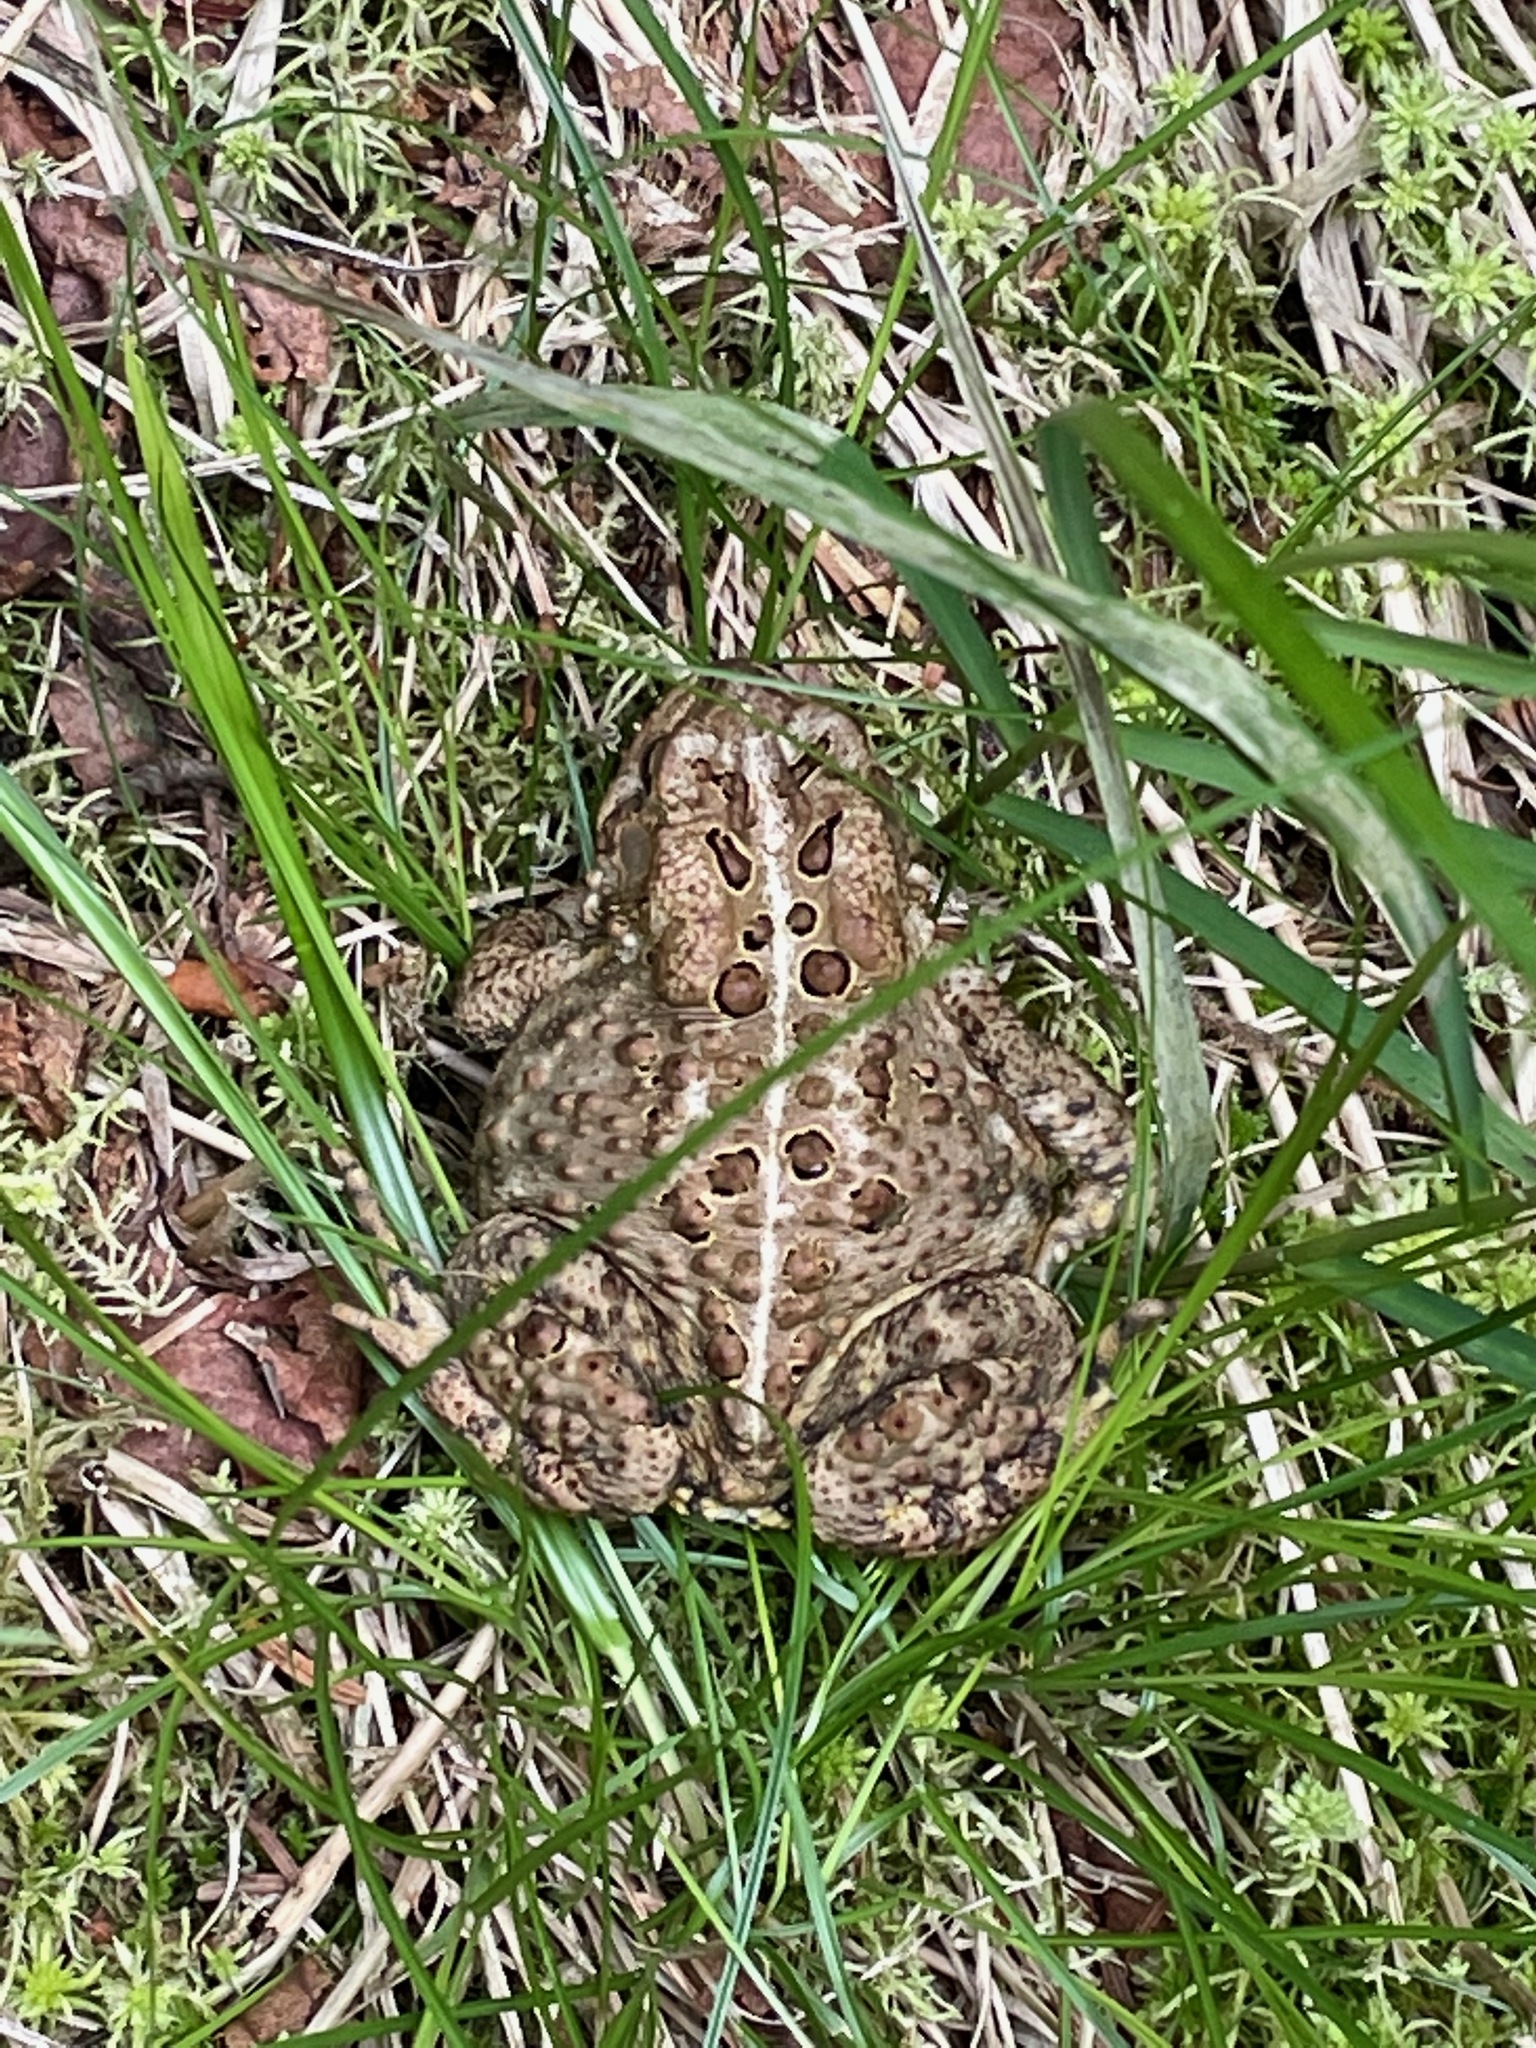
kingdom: Animalia
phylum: Chordata
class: Amphibia
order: Anura
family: Bufonidae
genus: Anaxyrus
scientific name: Anaxyrus americanus
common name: American toad
